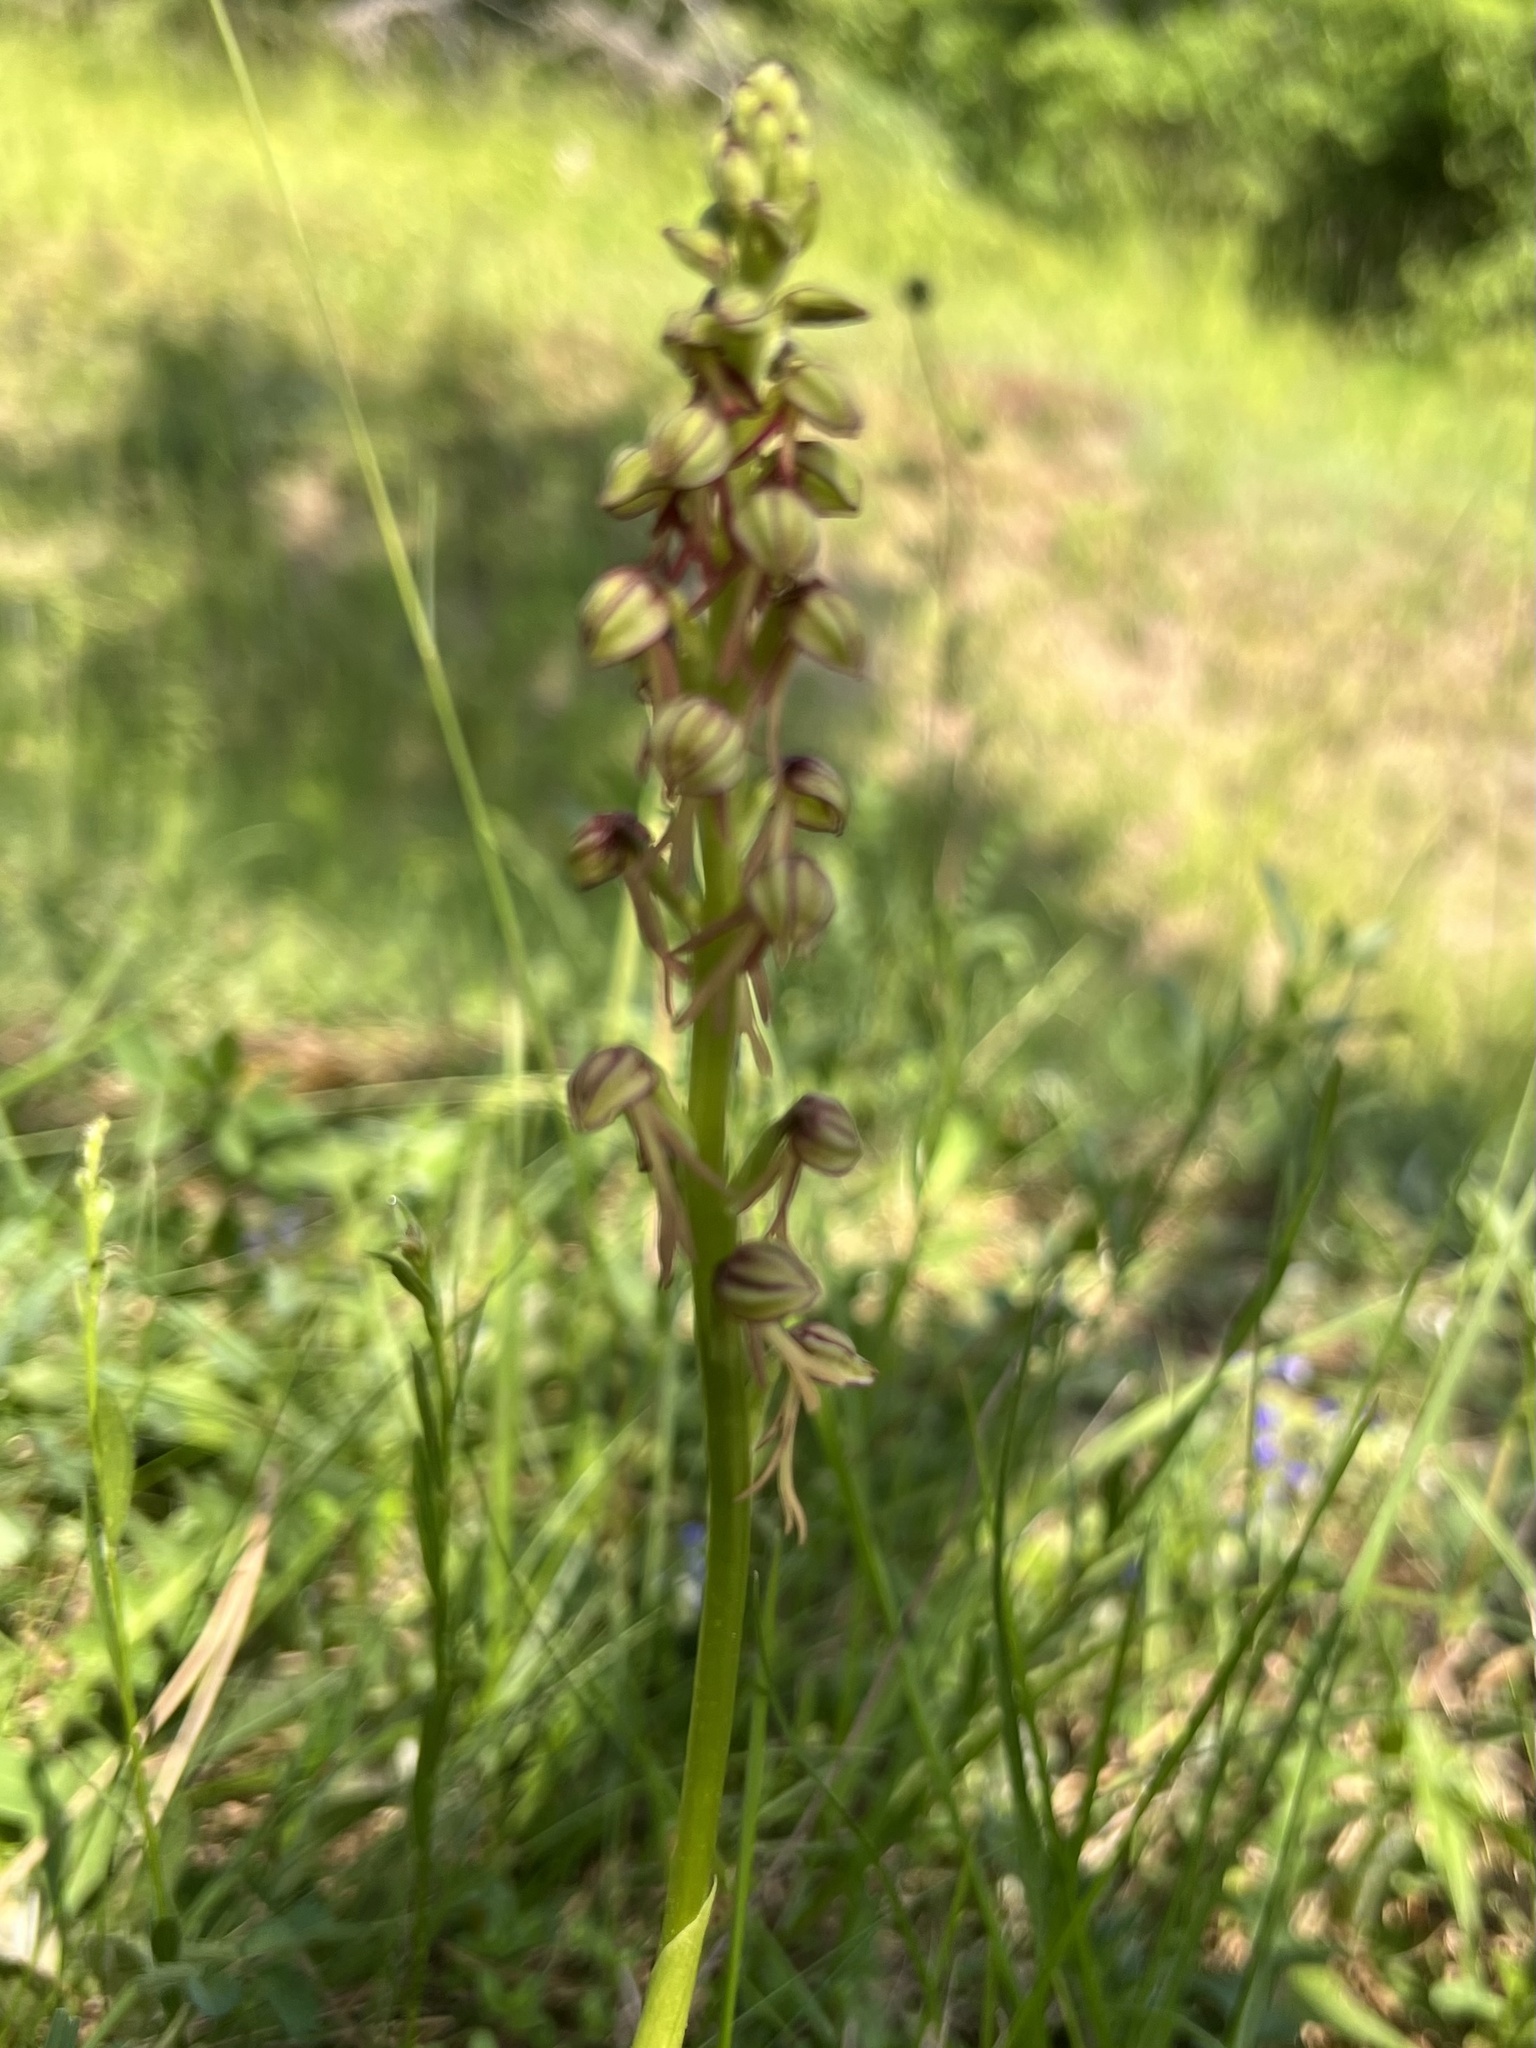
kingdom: Plantae
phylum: Tracheophyta
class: Liliopsida
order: Asparagales
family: Orchidaceae
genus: Orchis
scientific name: Orchis anthropophora
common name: Man orchid
